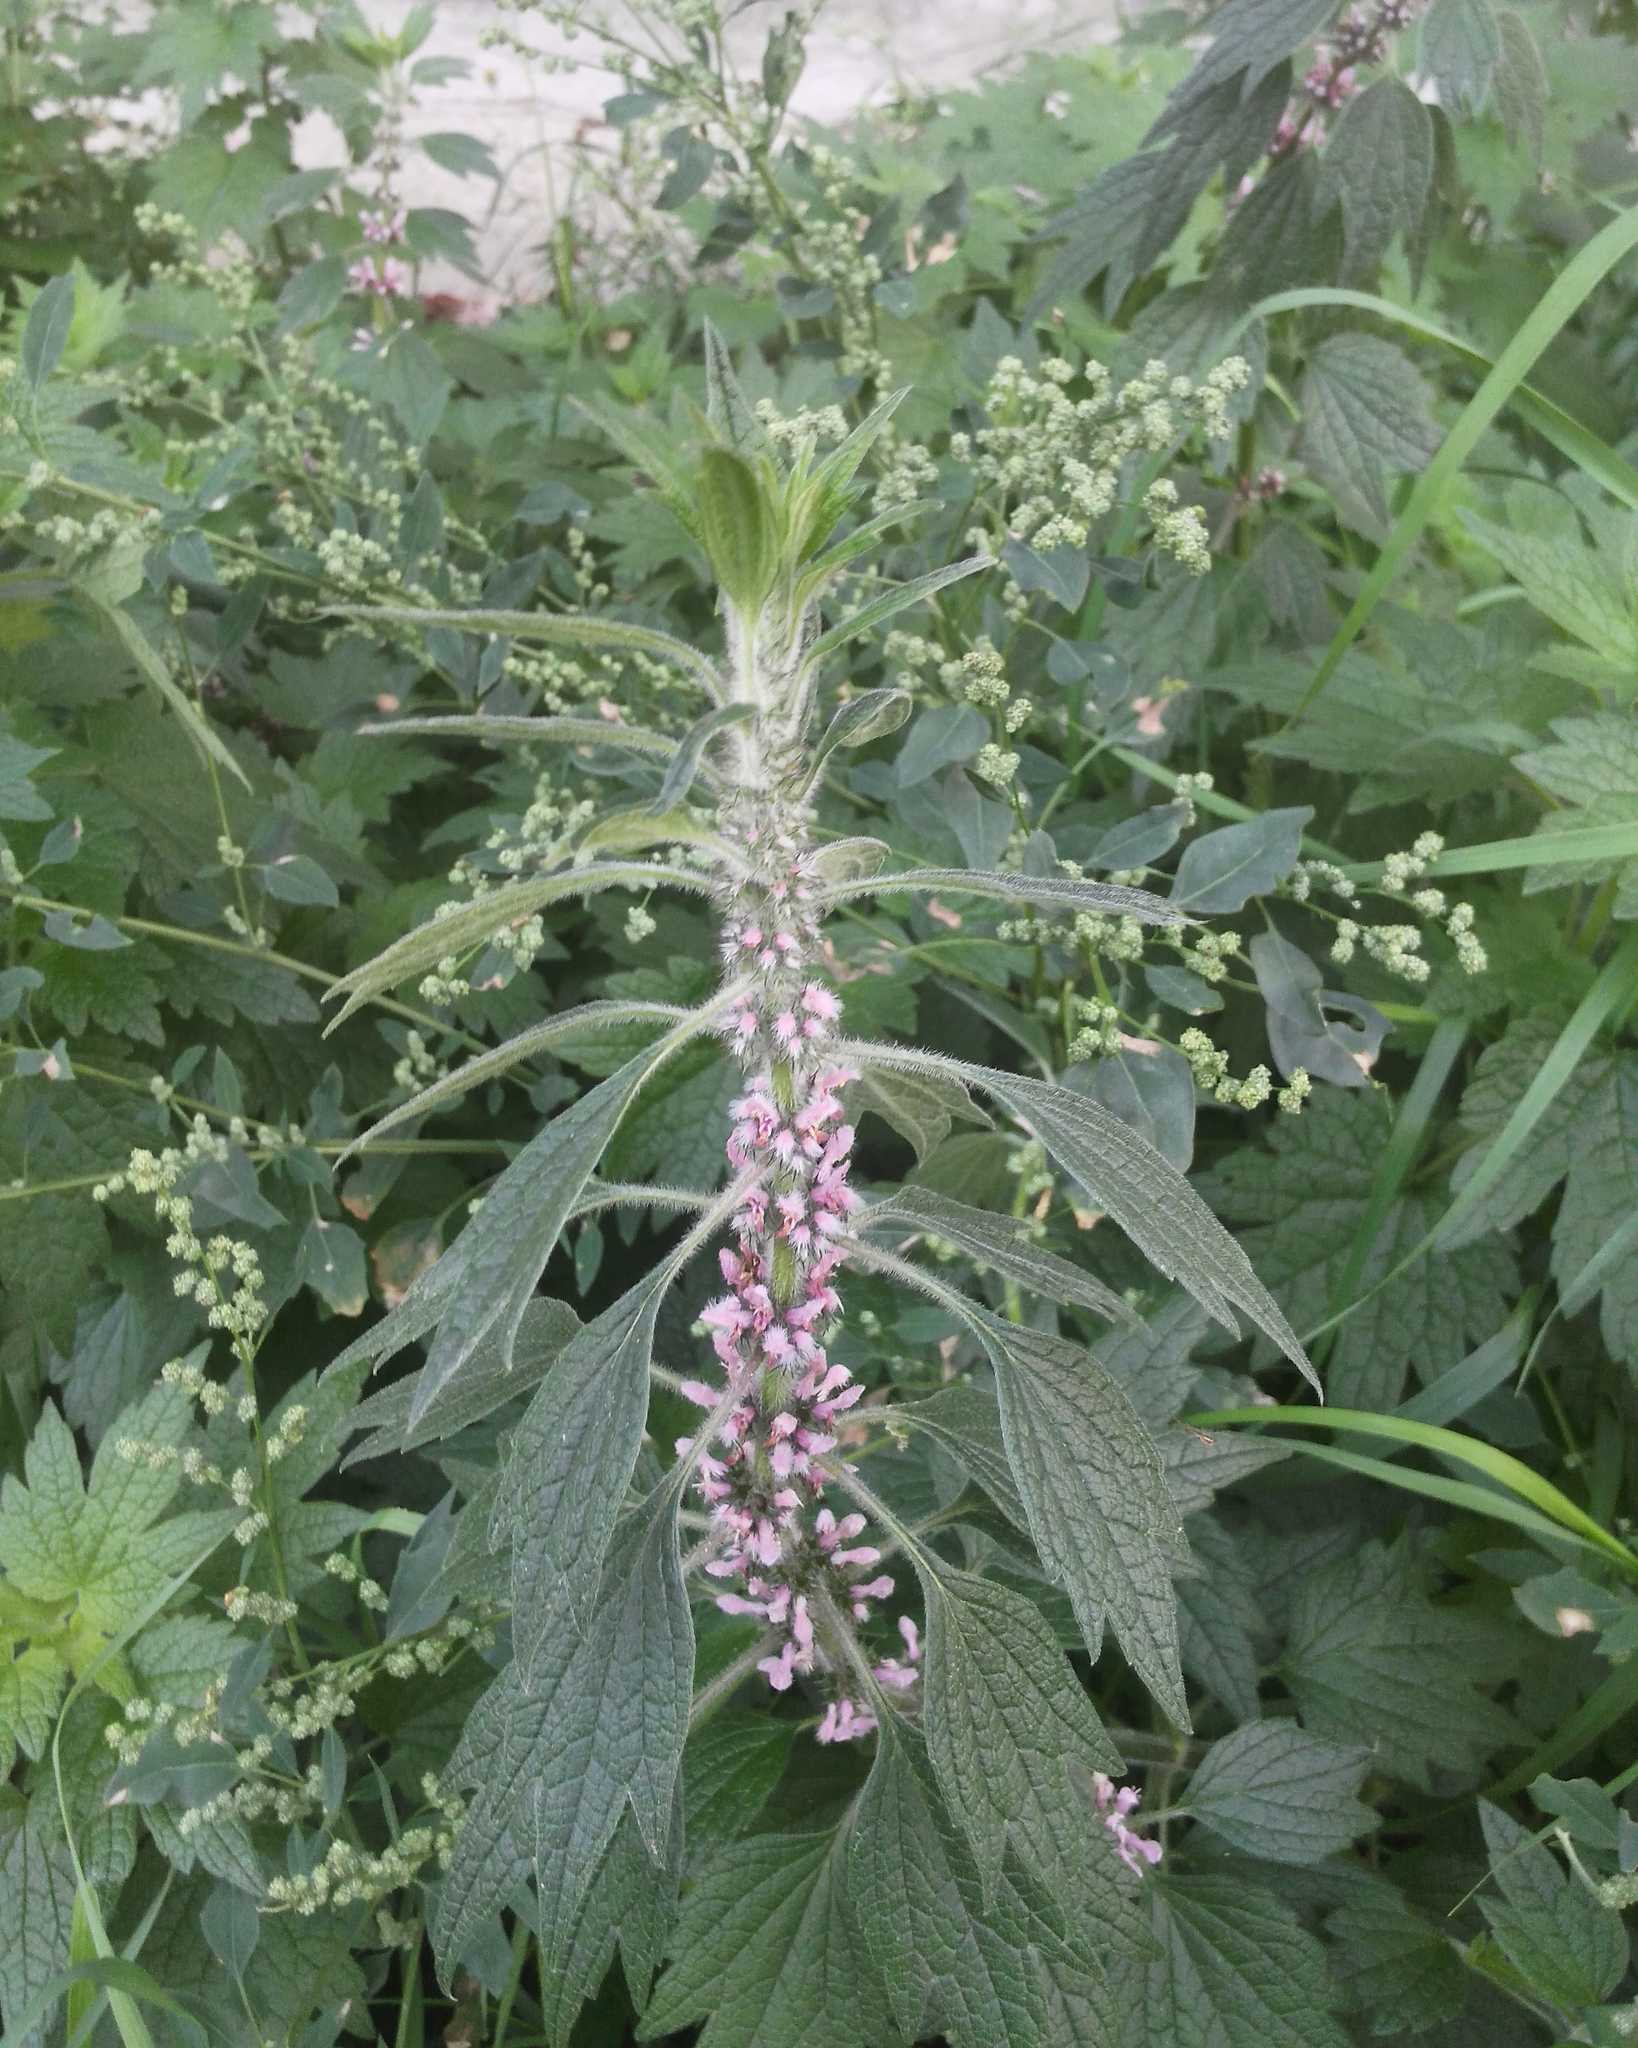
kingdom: Plantae
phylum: Tracheophyta
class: Magnoliopsida
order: Lamiales
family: Lamiaceae
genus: Leonurus
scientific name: Leonurus quinquelobatus
